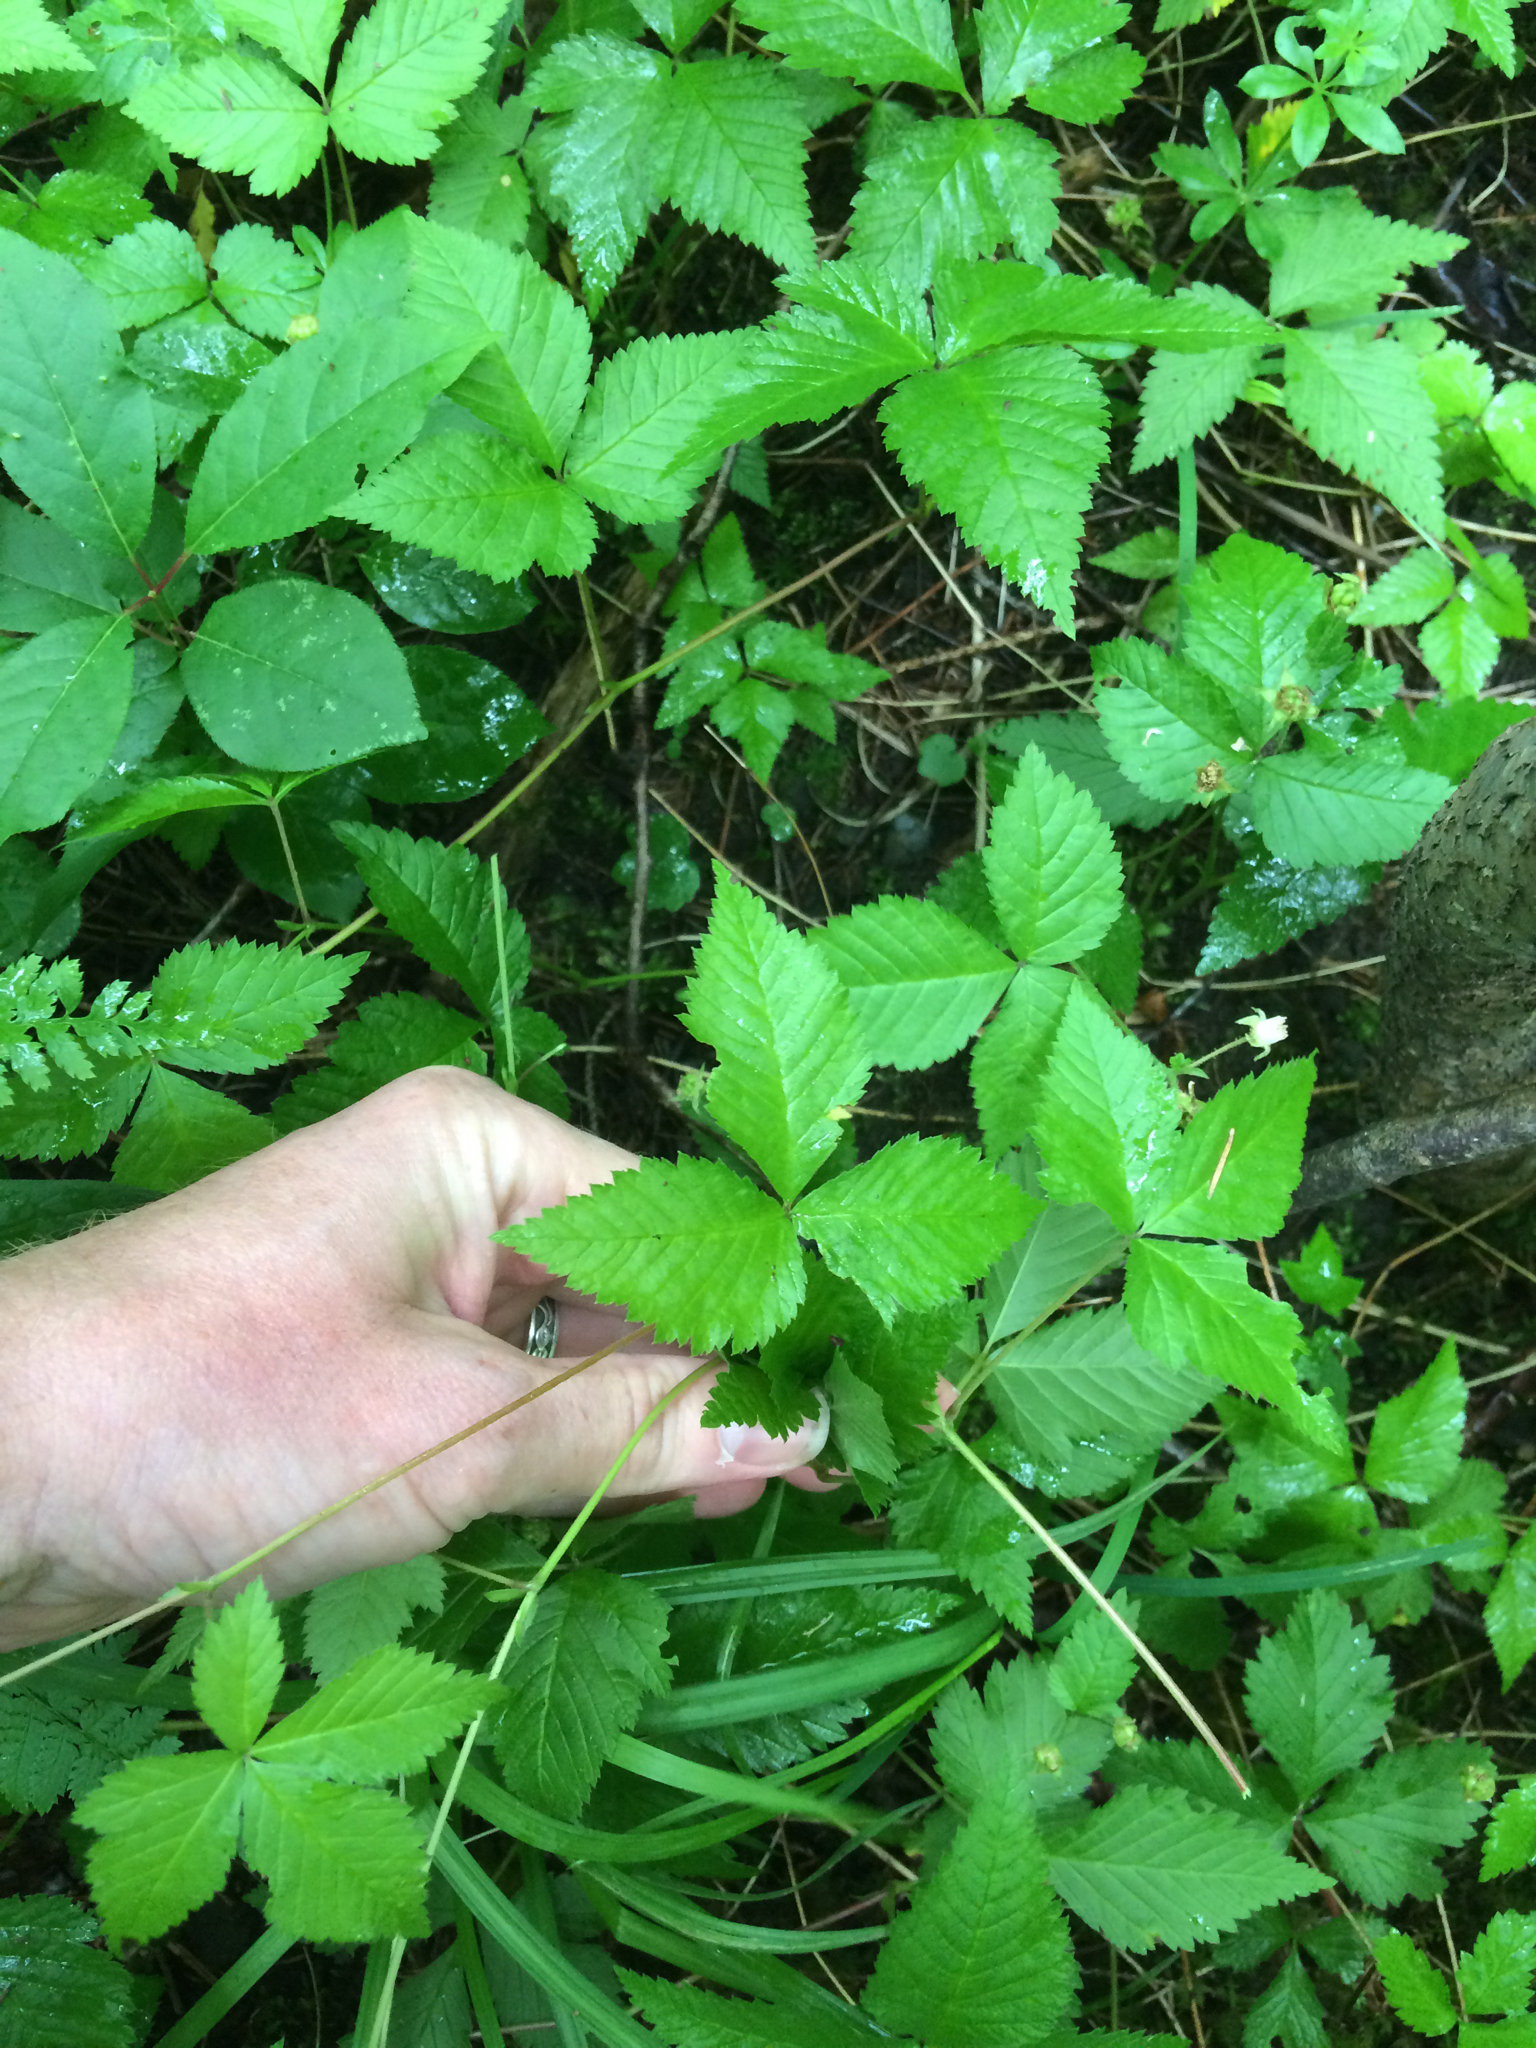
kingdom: Plantae
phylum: Tracheophyta
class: Magnoliopsida
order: Rosales
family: Rosaceae
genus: Rubus
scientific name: Rubus pubescens
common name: Dwarf raspberry
